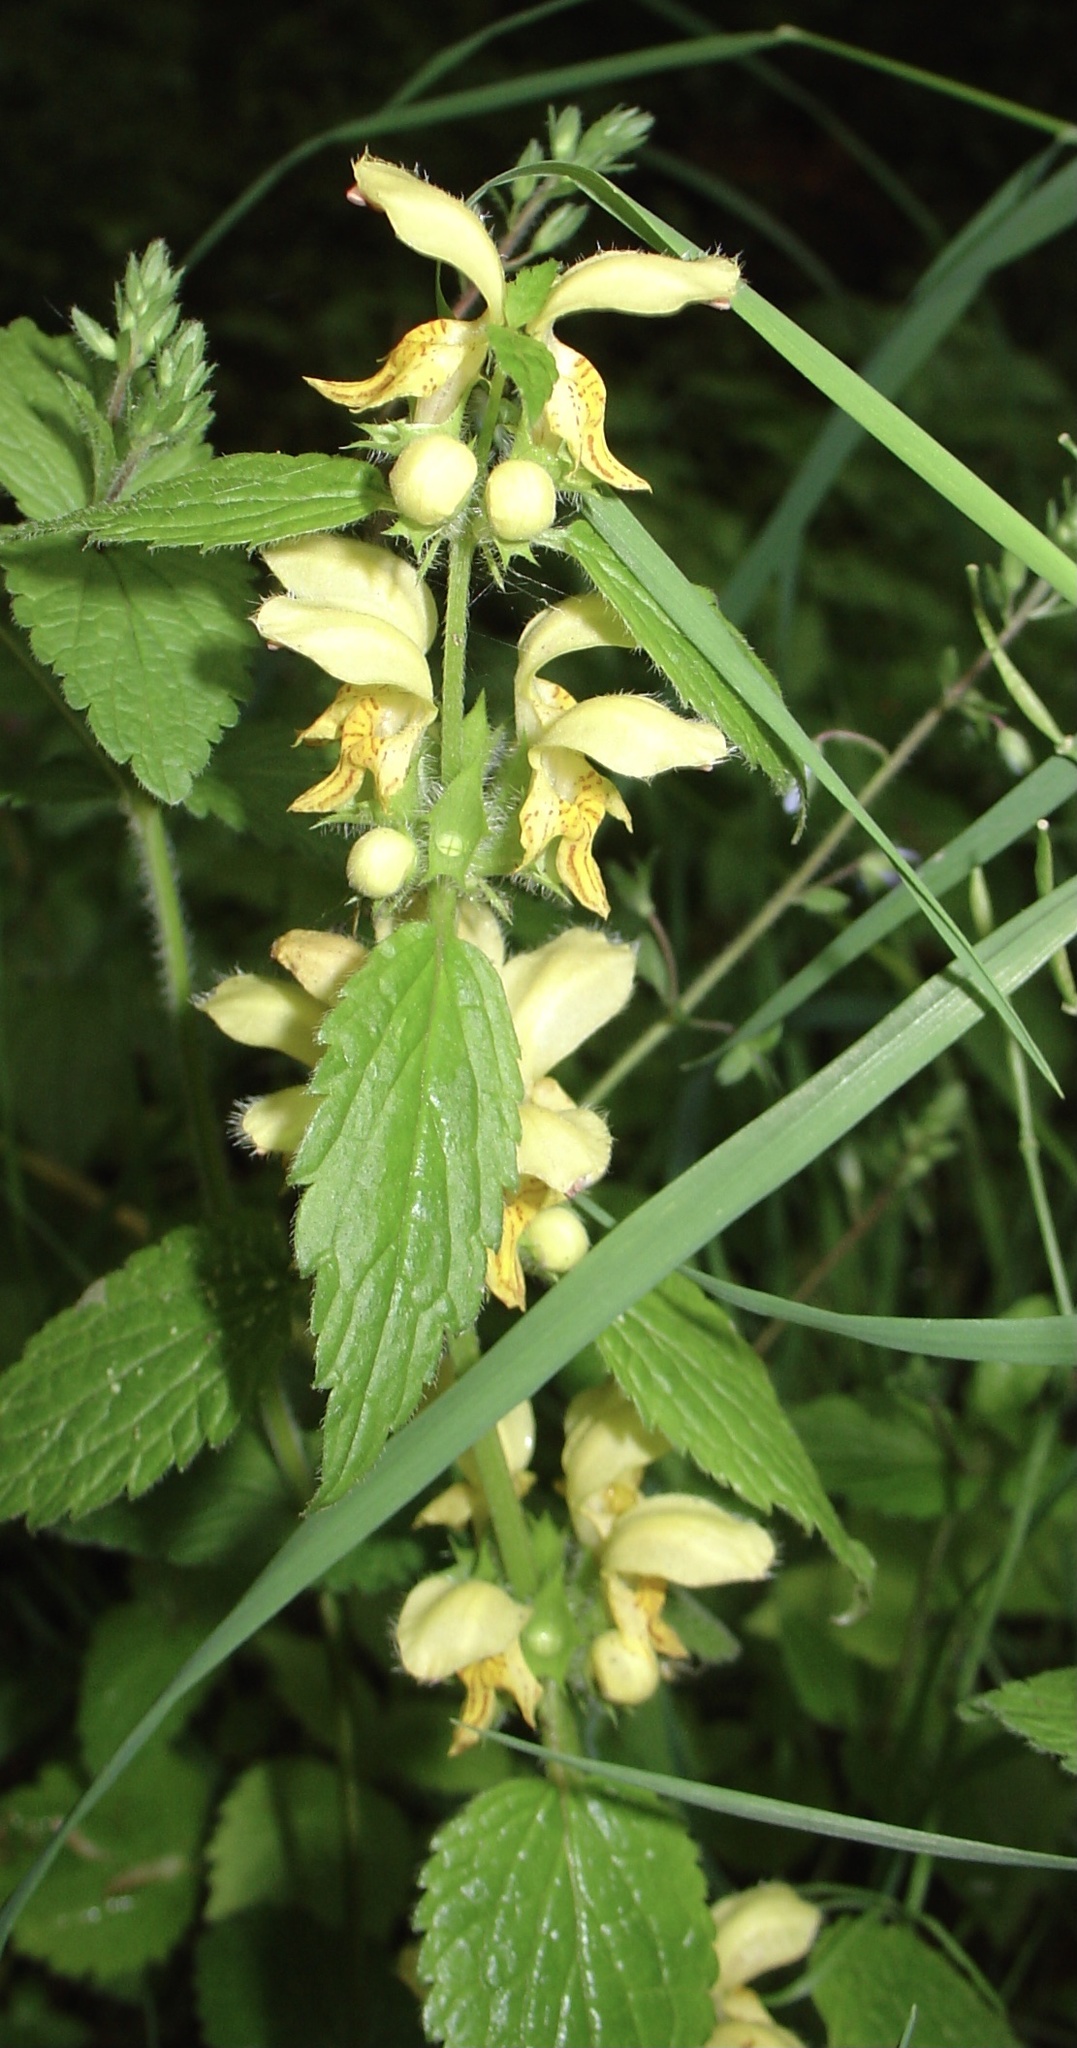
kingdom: Plantae
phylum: Tracheophyta
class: Magnoliopsida
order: Lamiales
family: Lamiaceae
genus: Lamium
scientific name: Lamium galeobdolon
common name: Yellow archangel
